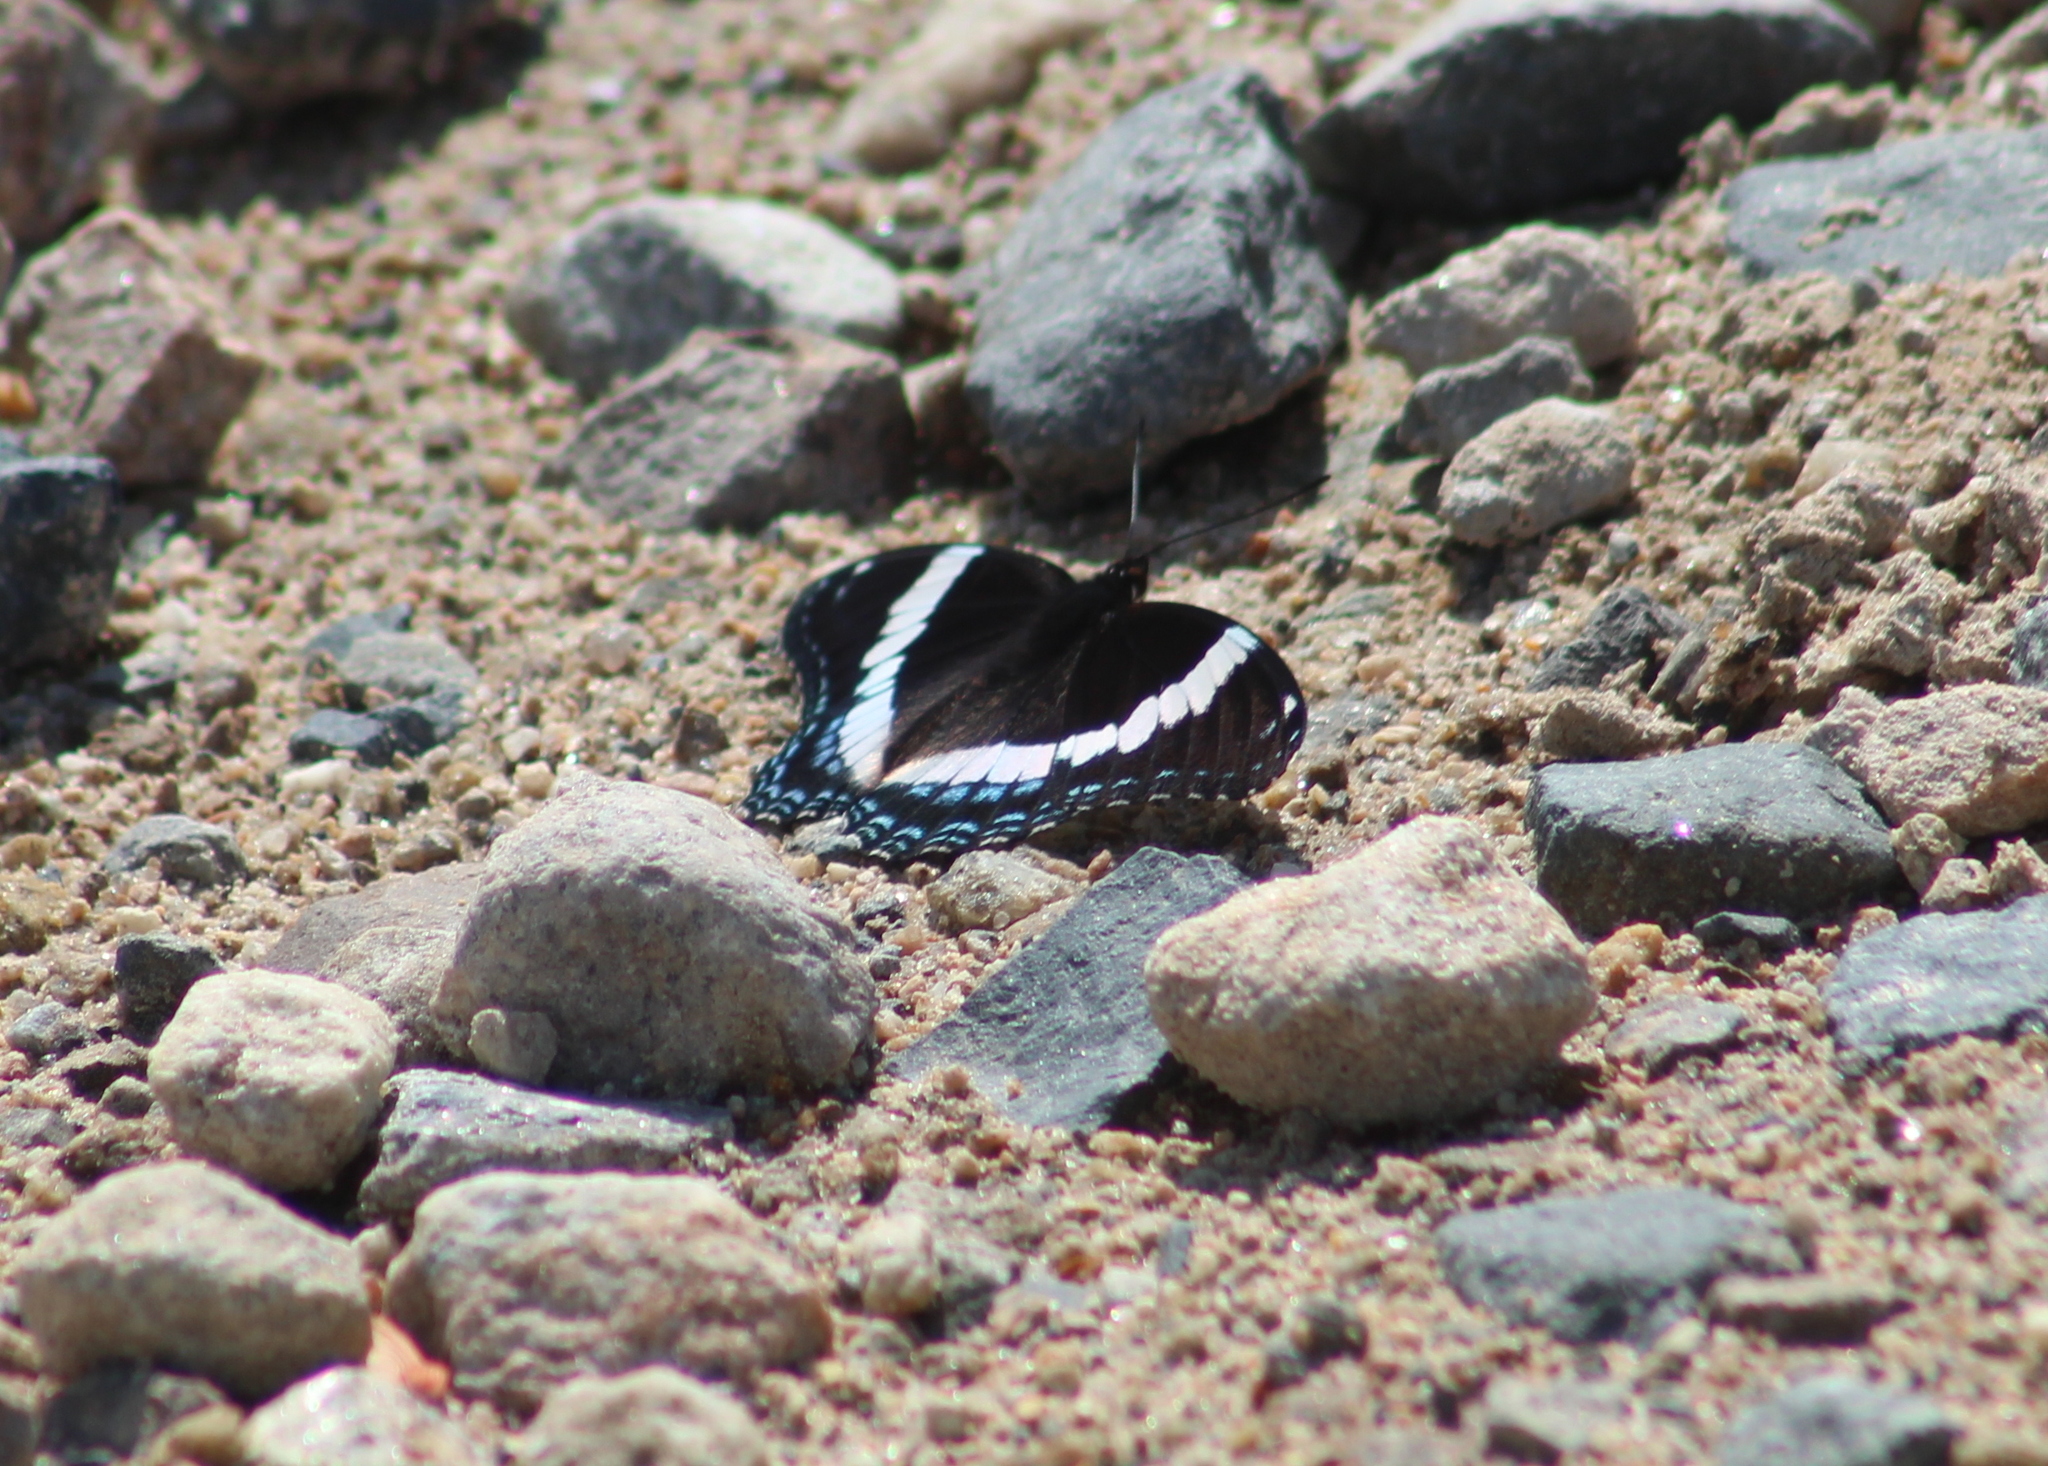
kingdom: Animalia
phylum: Arthropoda
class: Insecta
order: Lepidoptera
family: Nymphalidae
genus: Limenitis
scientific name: Limenitis arthemis
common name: Red-spotted admiral
